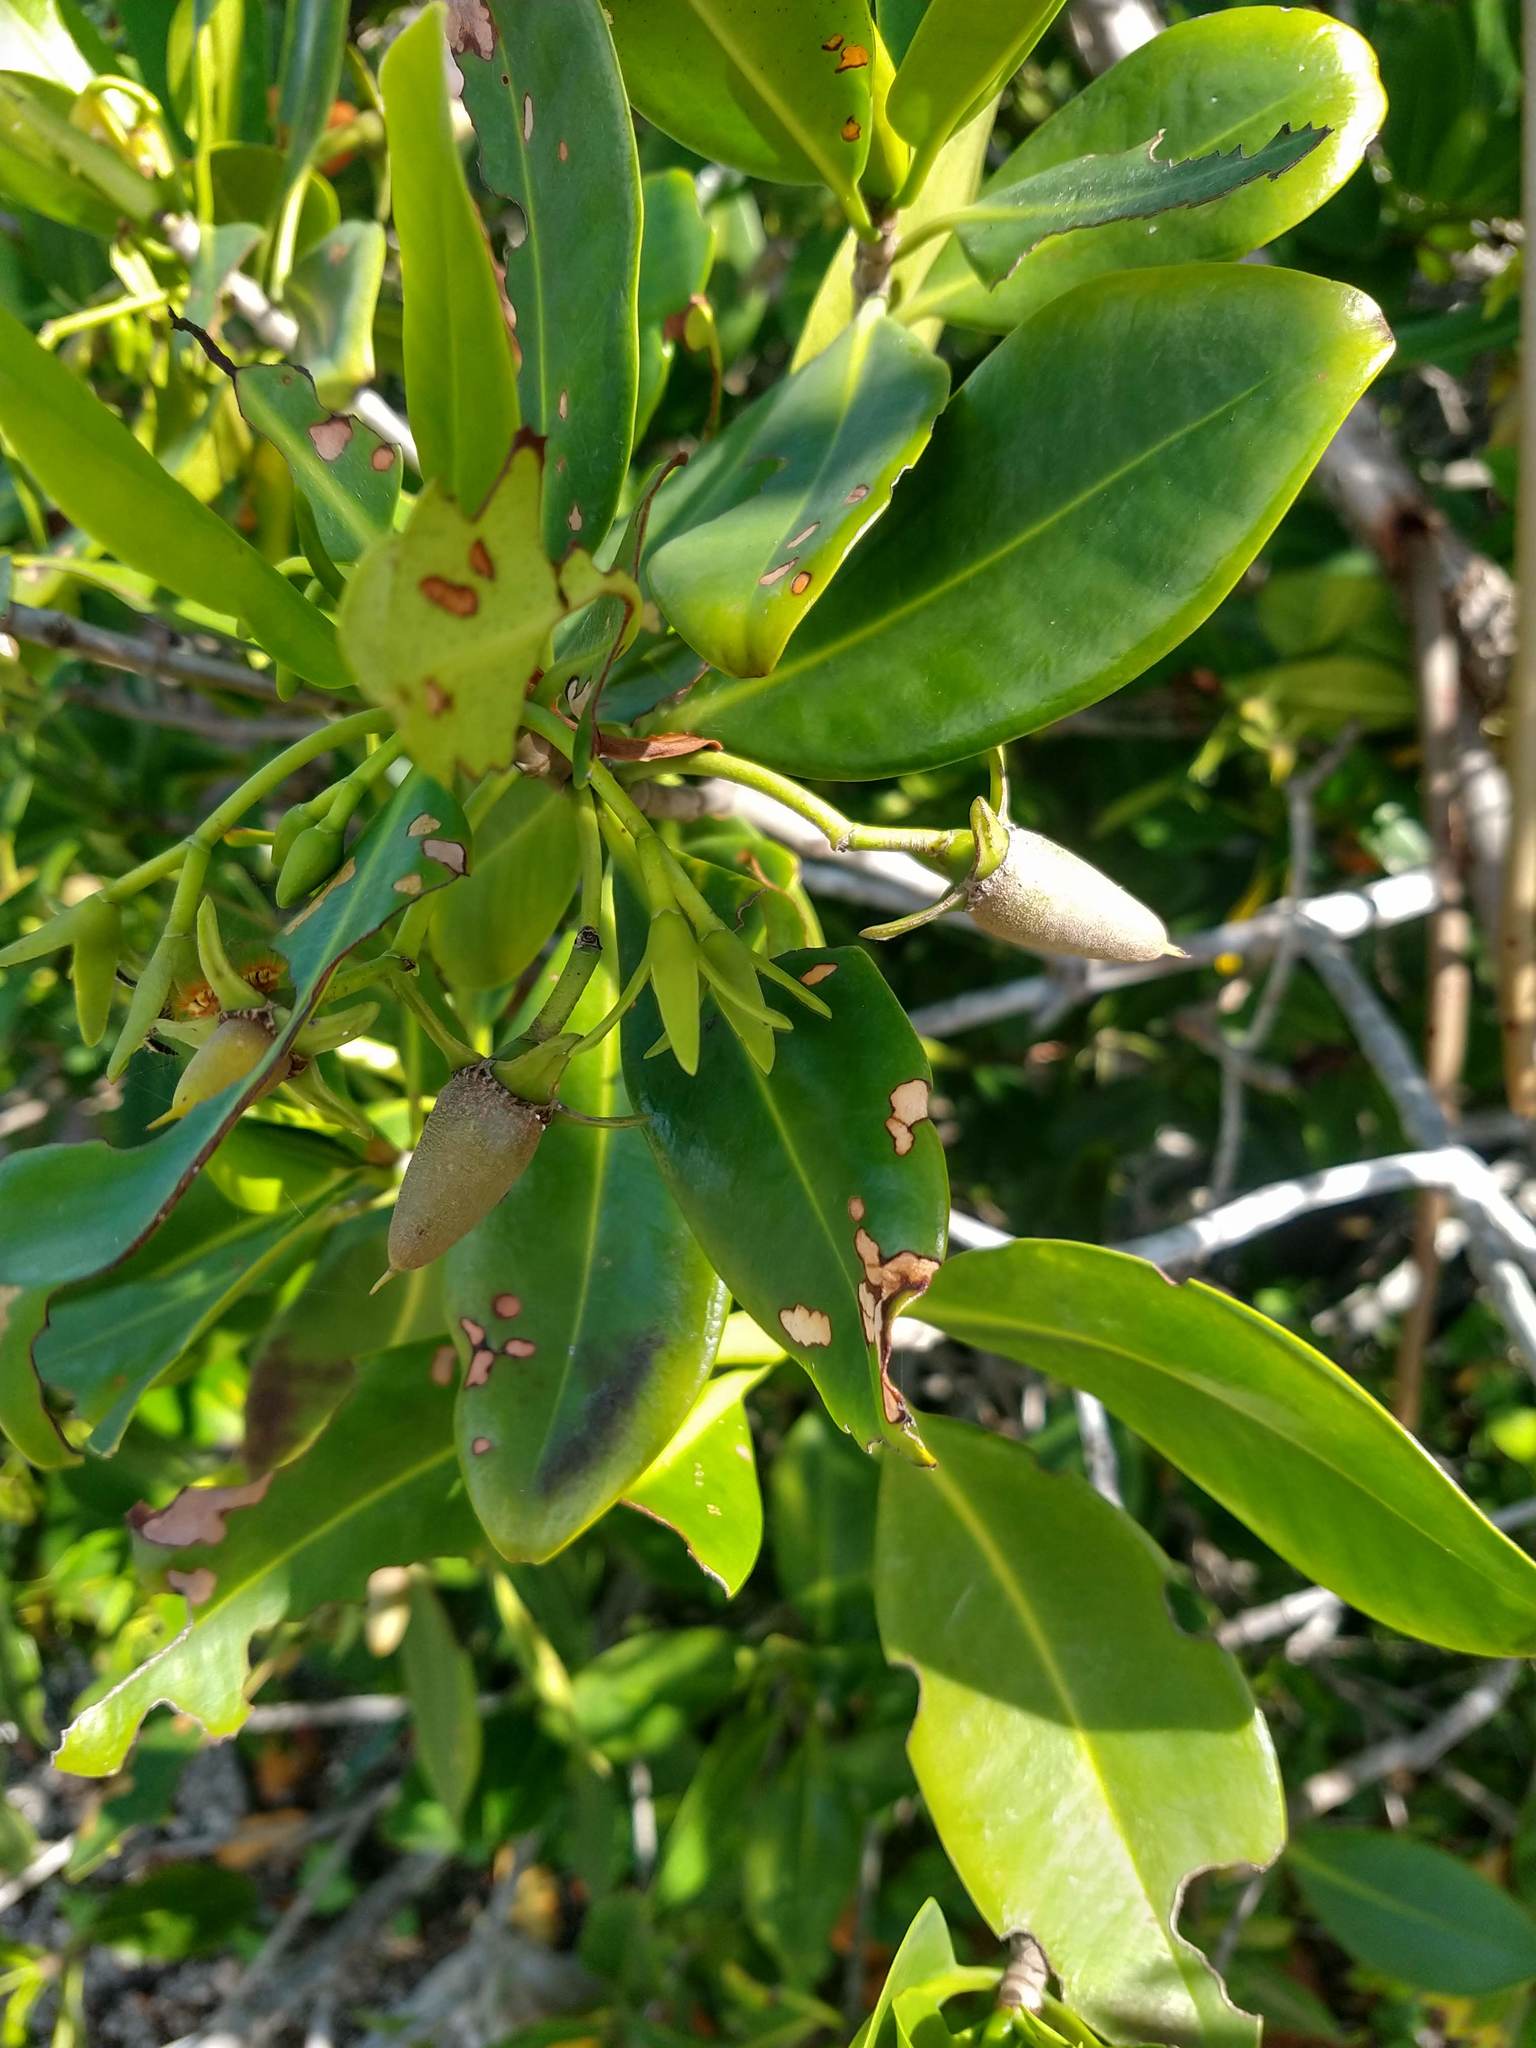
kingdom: Plantae
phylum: Tracheophyta
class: Magnoliopsida
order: Malpighiales
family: Rhizophoraceae
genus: Rhizophora
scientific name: Rhizophora mangle
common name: Red mangrove
